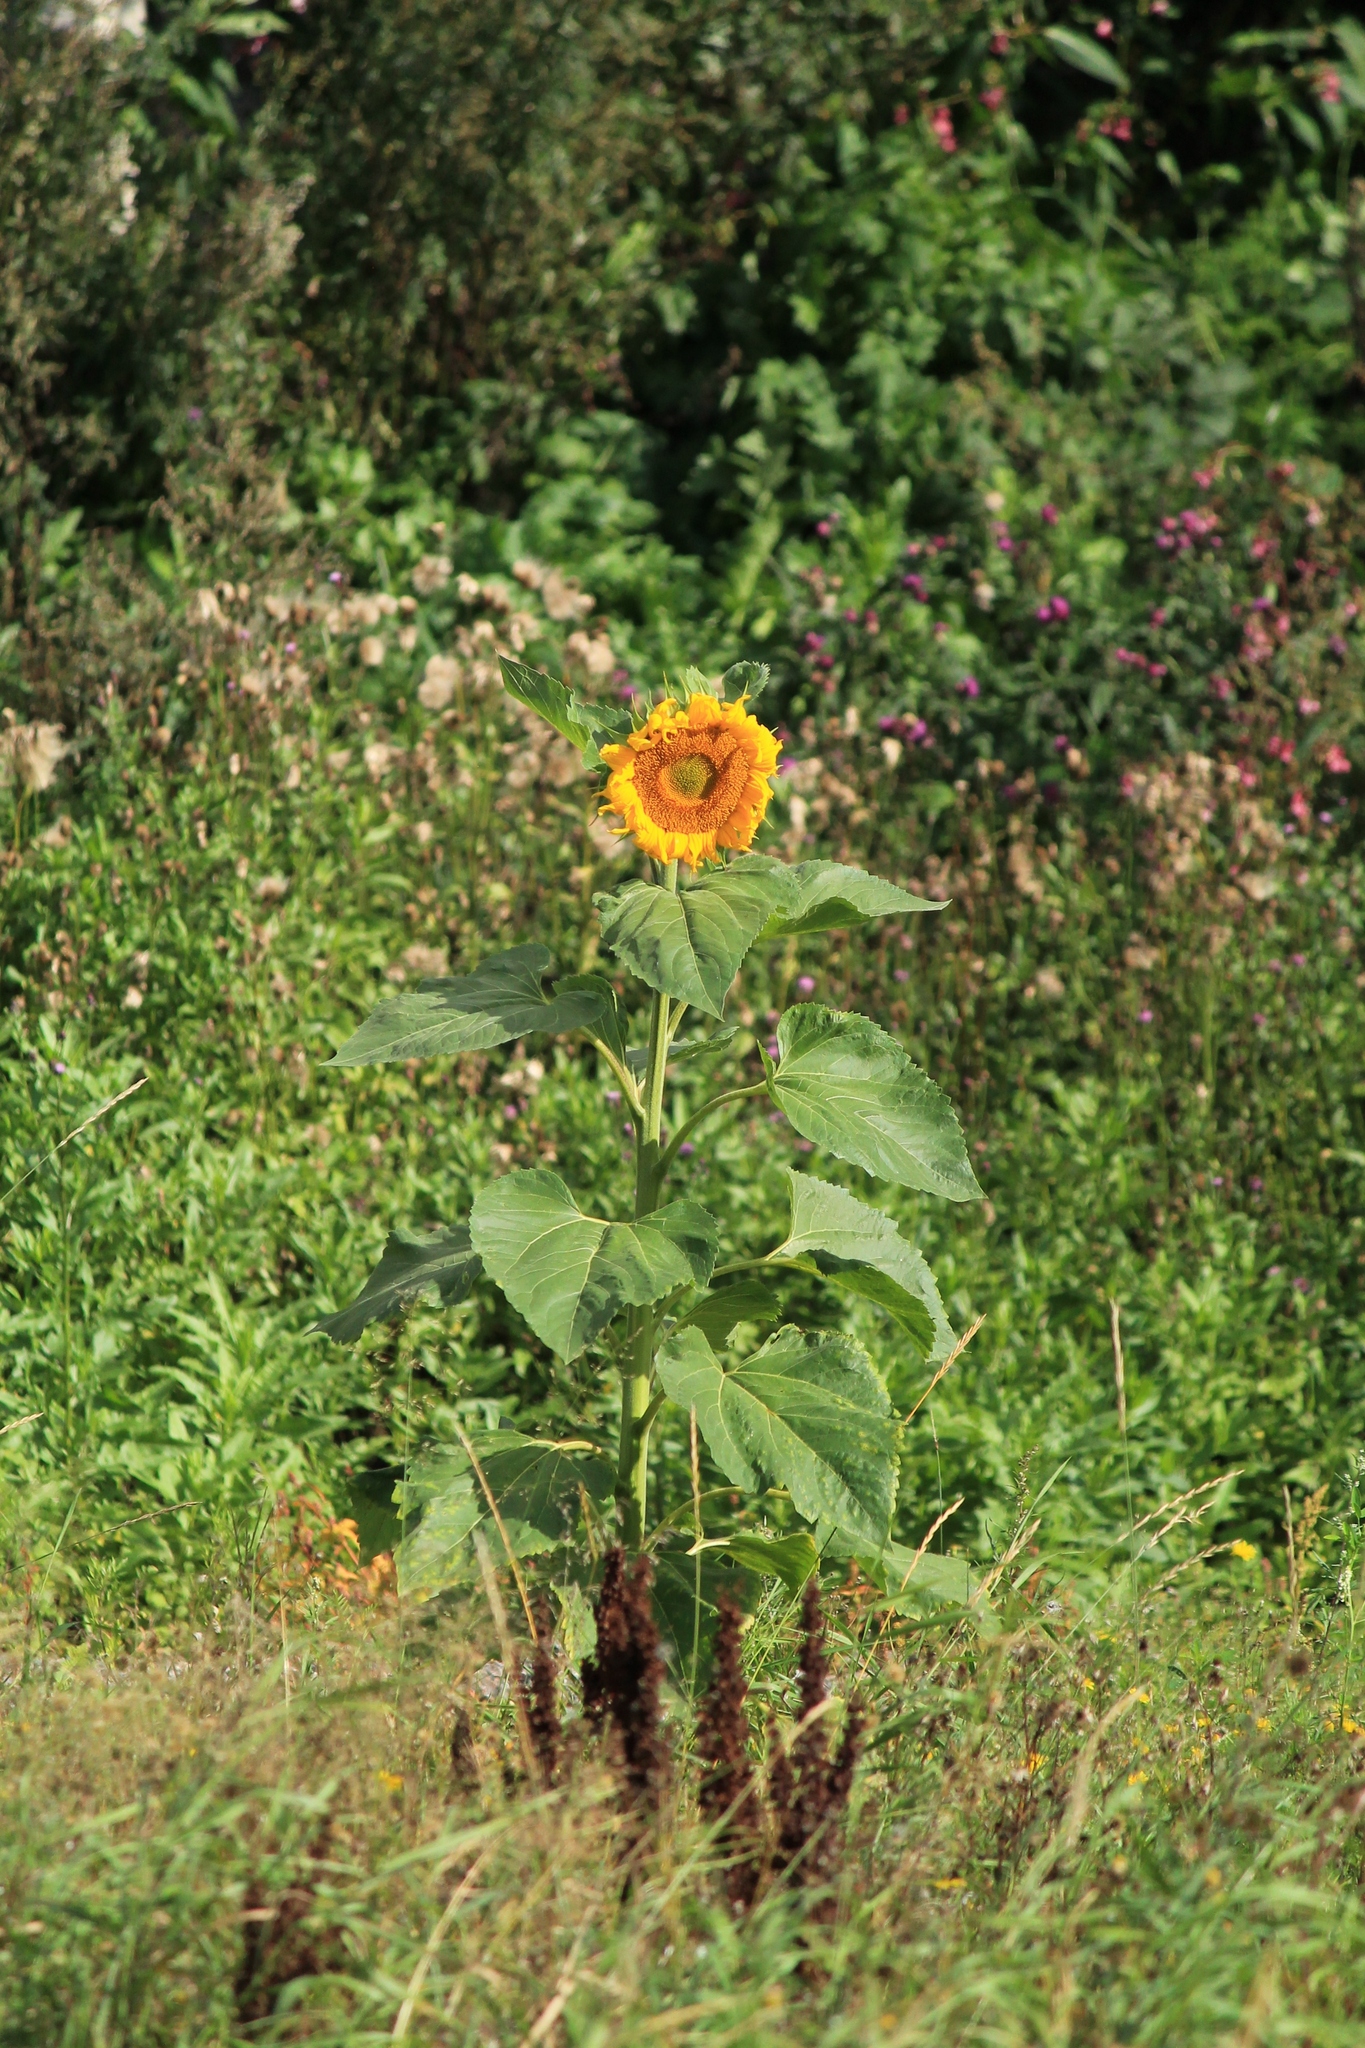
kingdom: Plantae
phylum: Tracheophyta
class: Magnoliopsida
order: Asterales
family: Asteraceae
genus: Helianthus
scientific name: Helianthus annuus
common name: Sunflower
